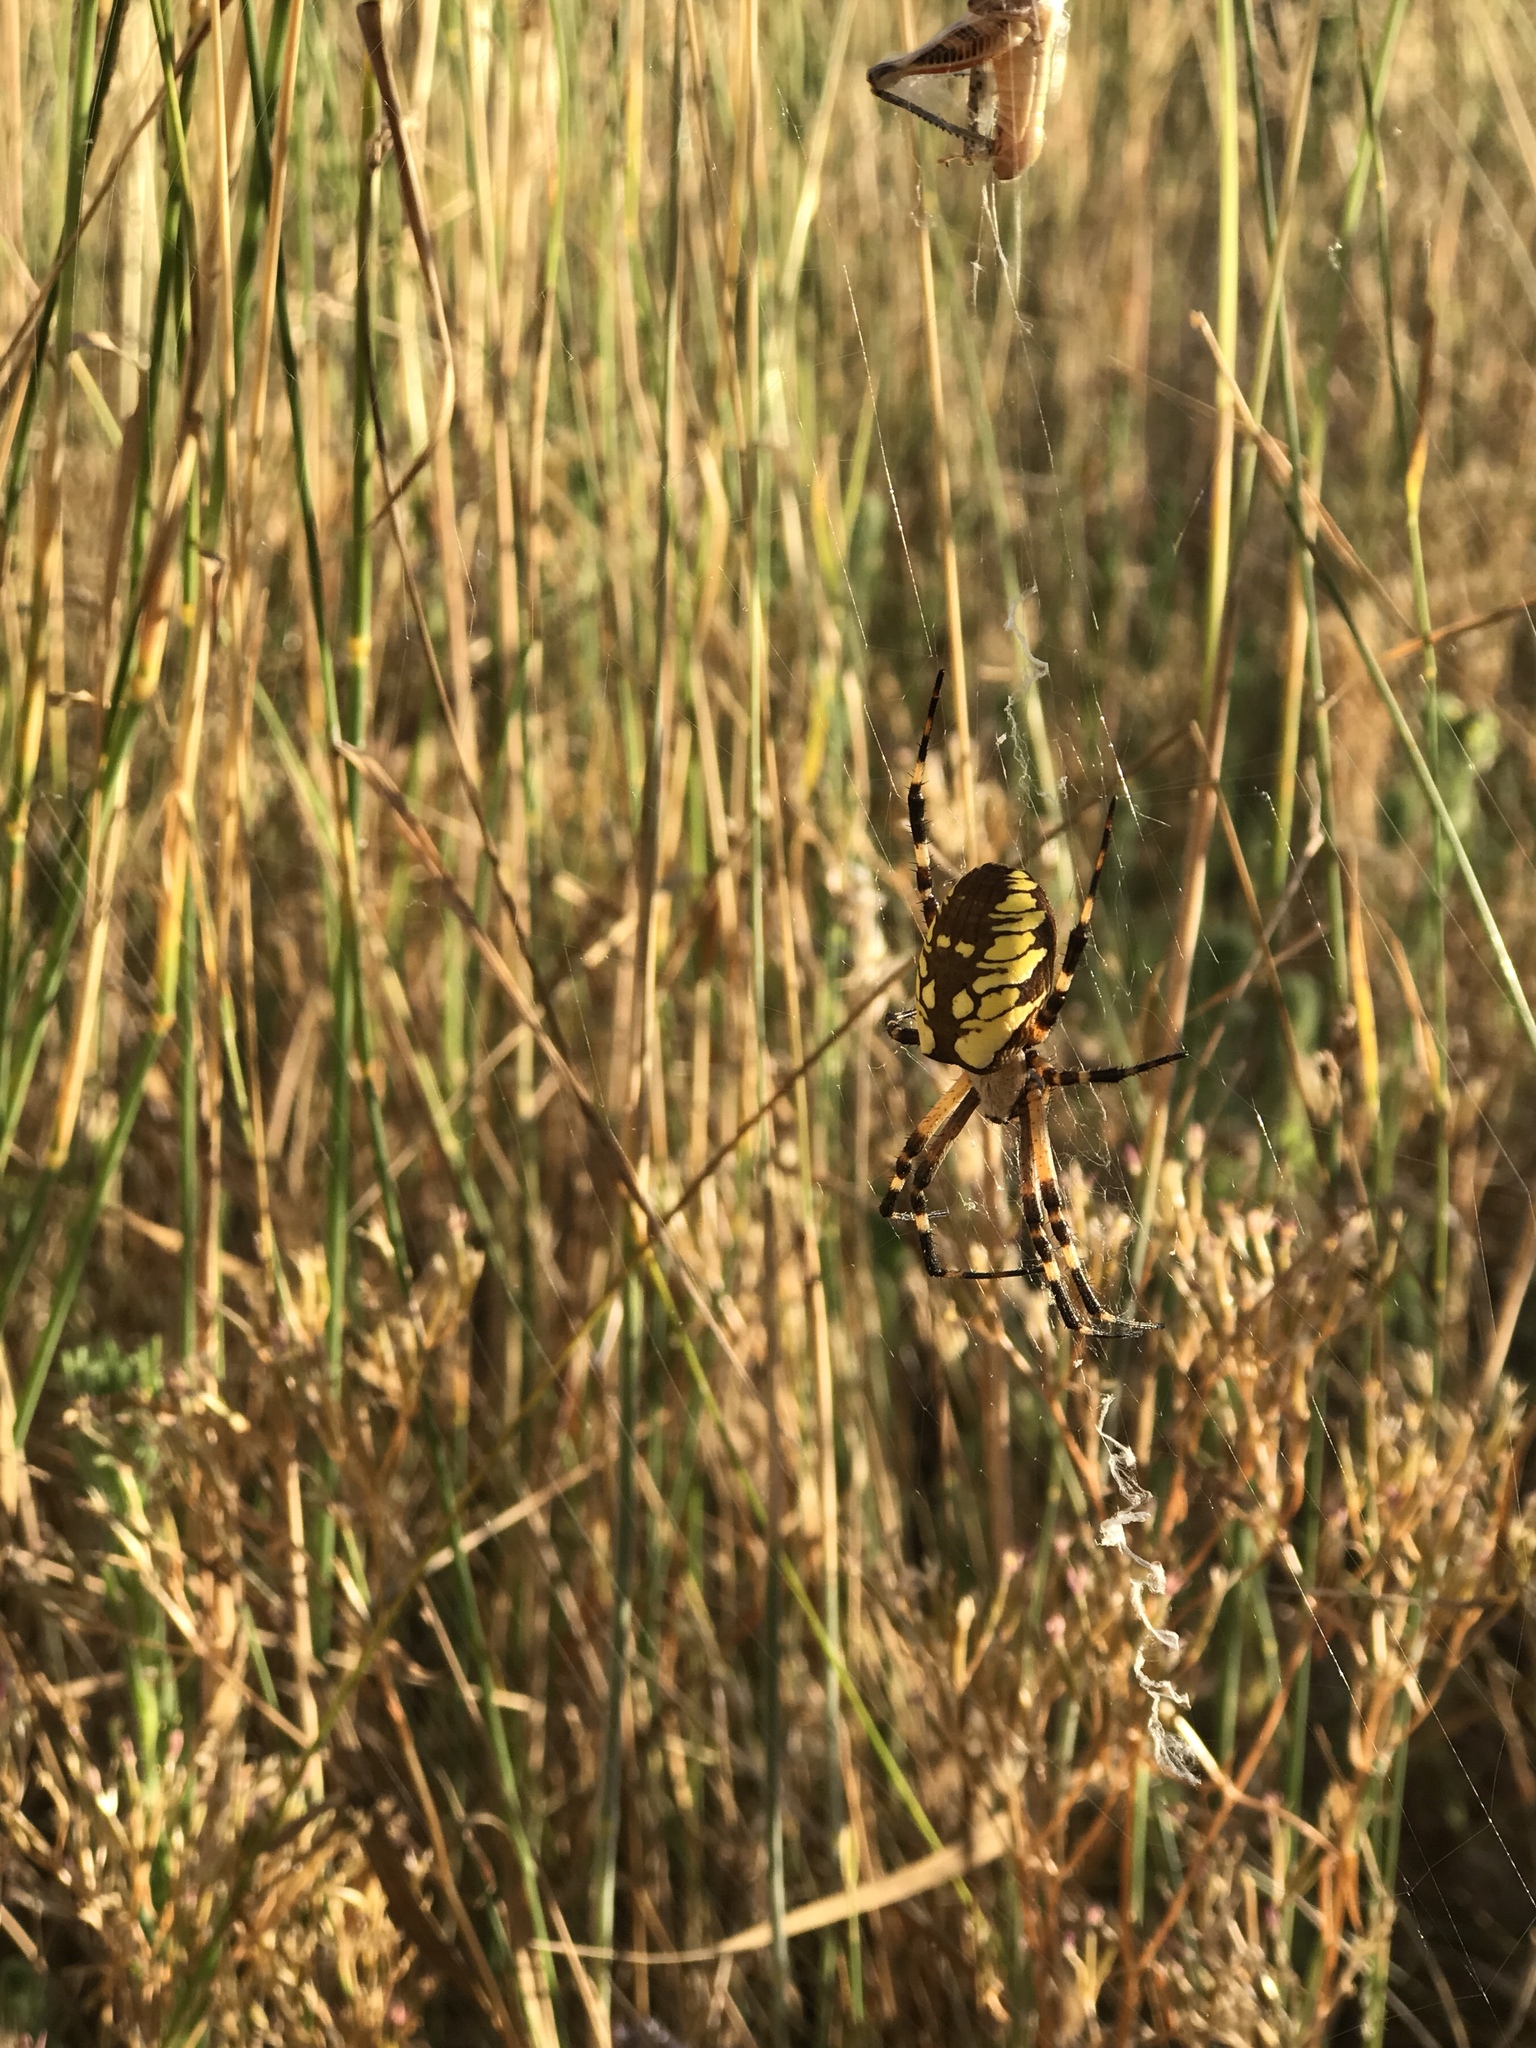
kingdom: Animalia
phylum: Arthropoda
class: Arachnida
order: Araneae
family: Araneidae
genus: Argiope
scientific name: Argiope aurantia
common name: Orb weavers
